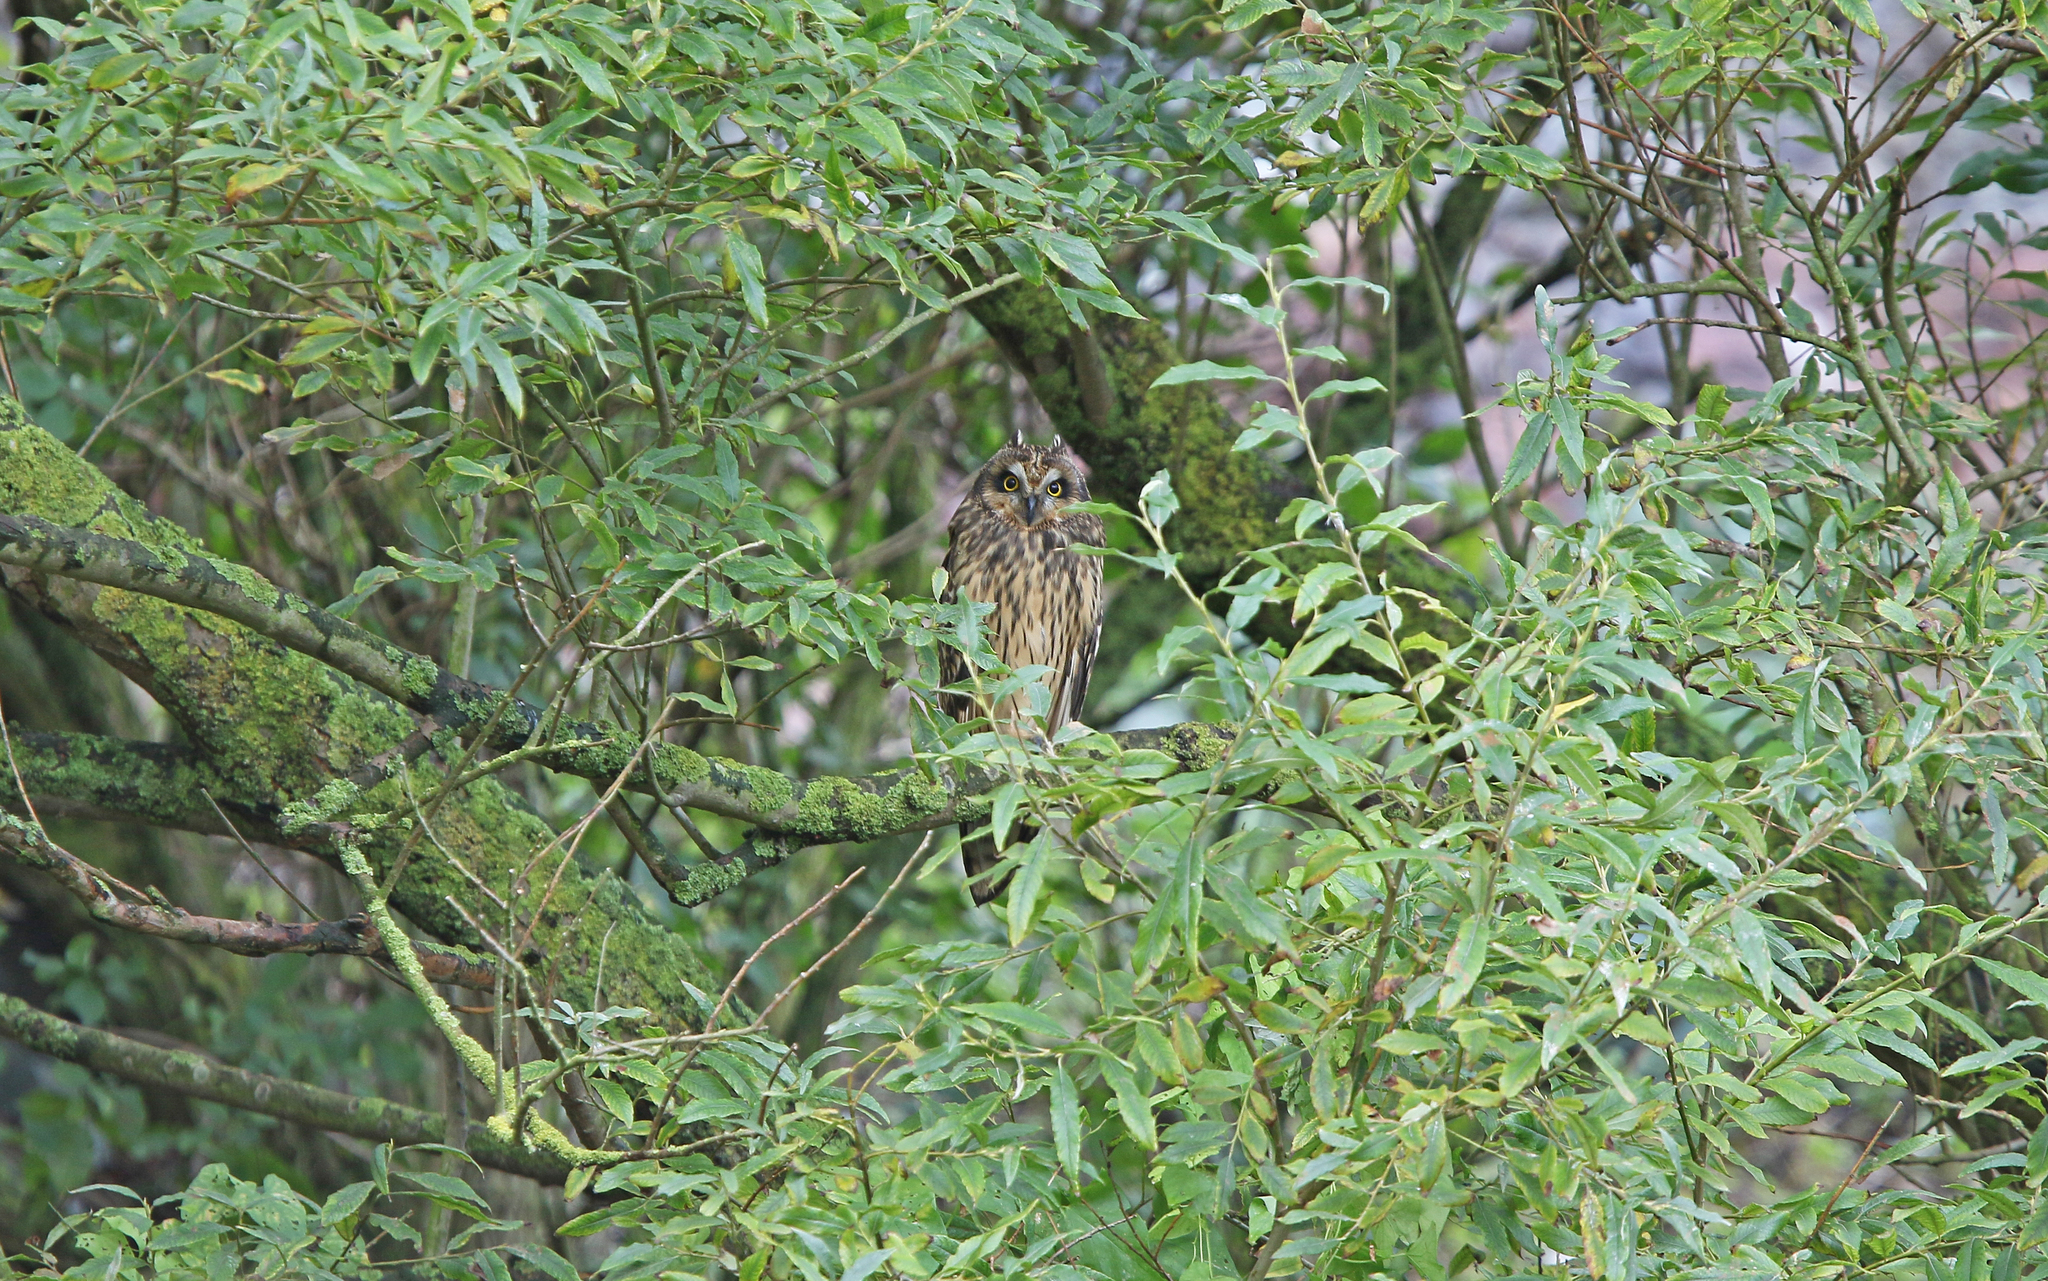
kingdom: Animalia
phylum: Chordata
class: Aves
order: Strigiformes
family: Strigidae
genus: Asio
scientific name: Asio flammeus
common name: Short-eared owl
